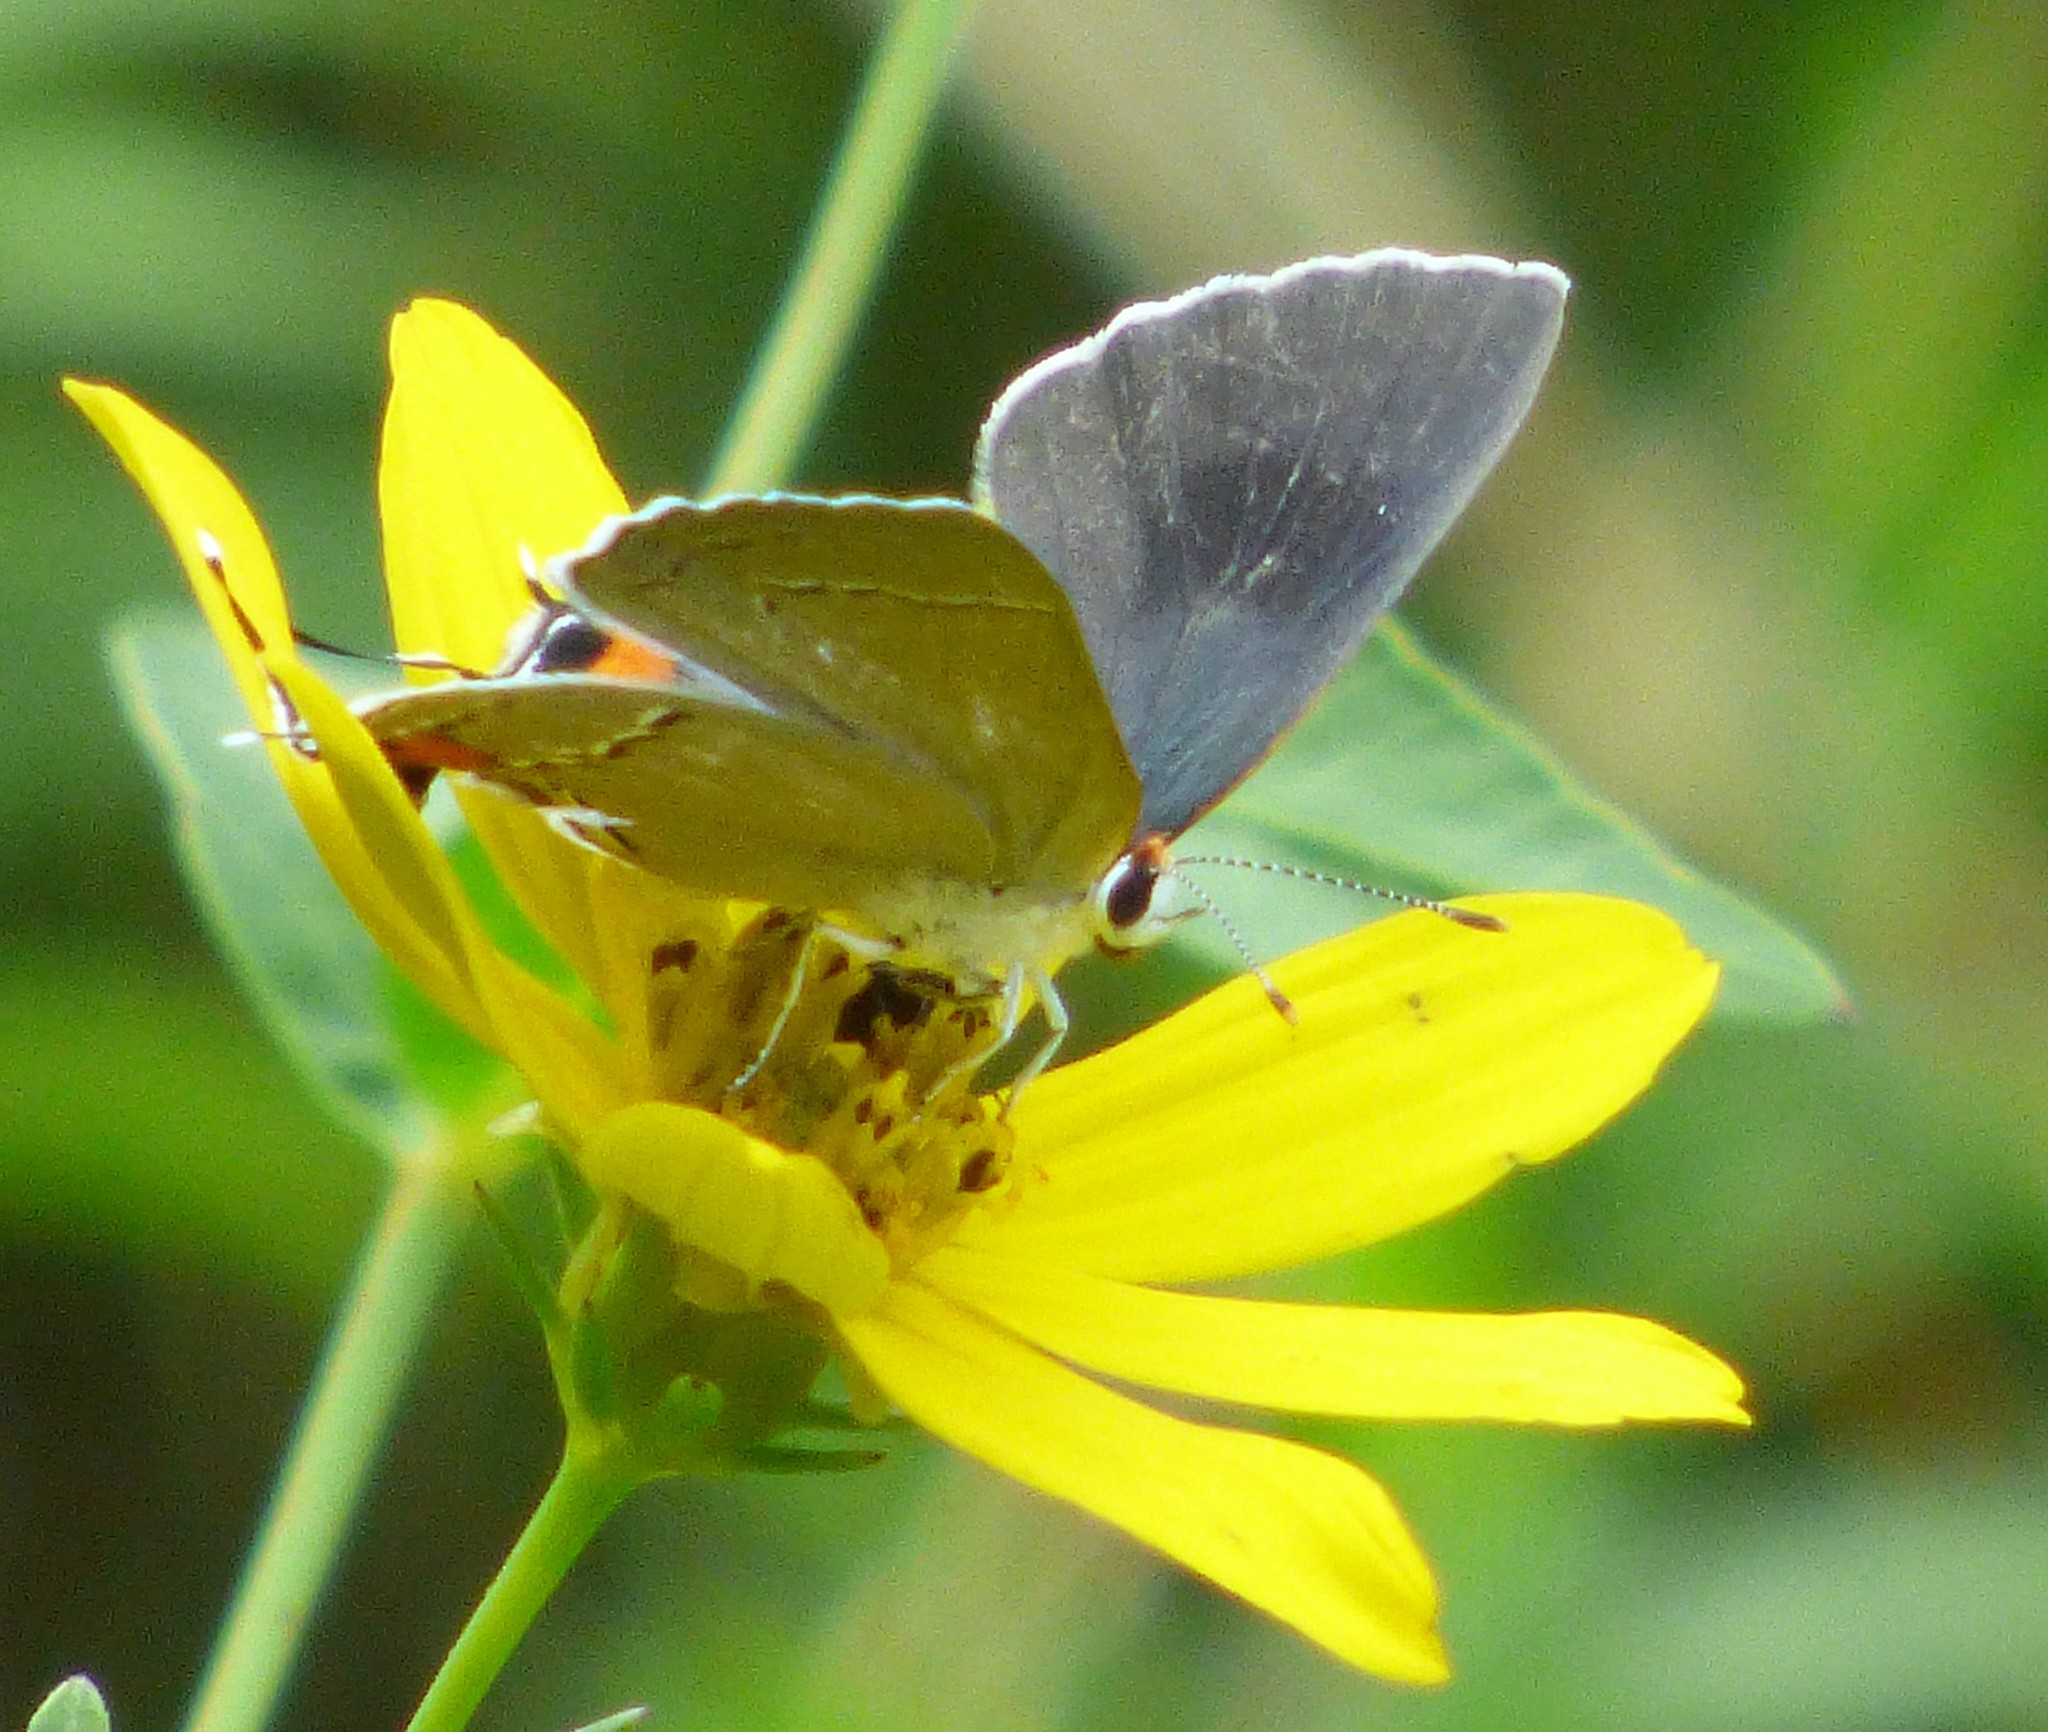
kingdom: Animalia
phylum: Arthropoda
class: Insecta
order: Lepidoptera
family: Lycaenidae
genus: Strymon
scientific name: Strymon melinus
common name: Gray hairstreak
